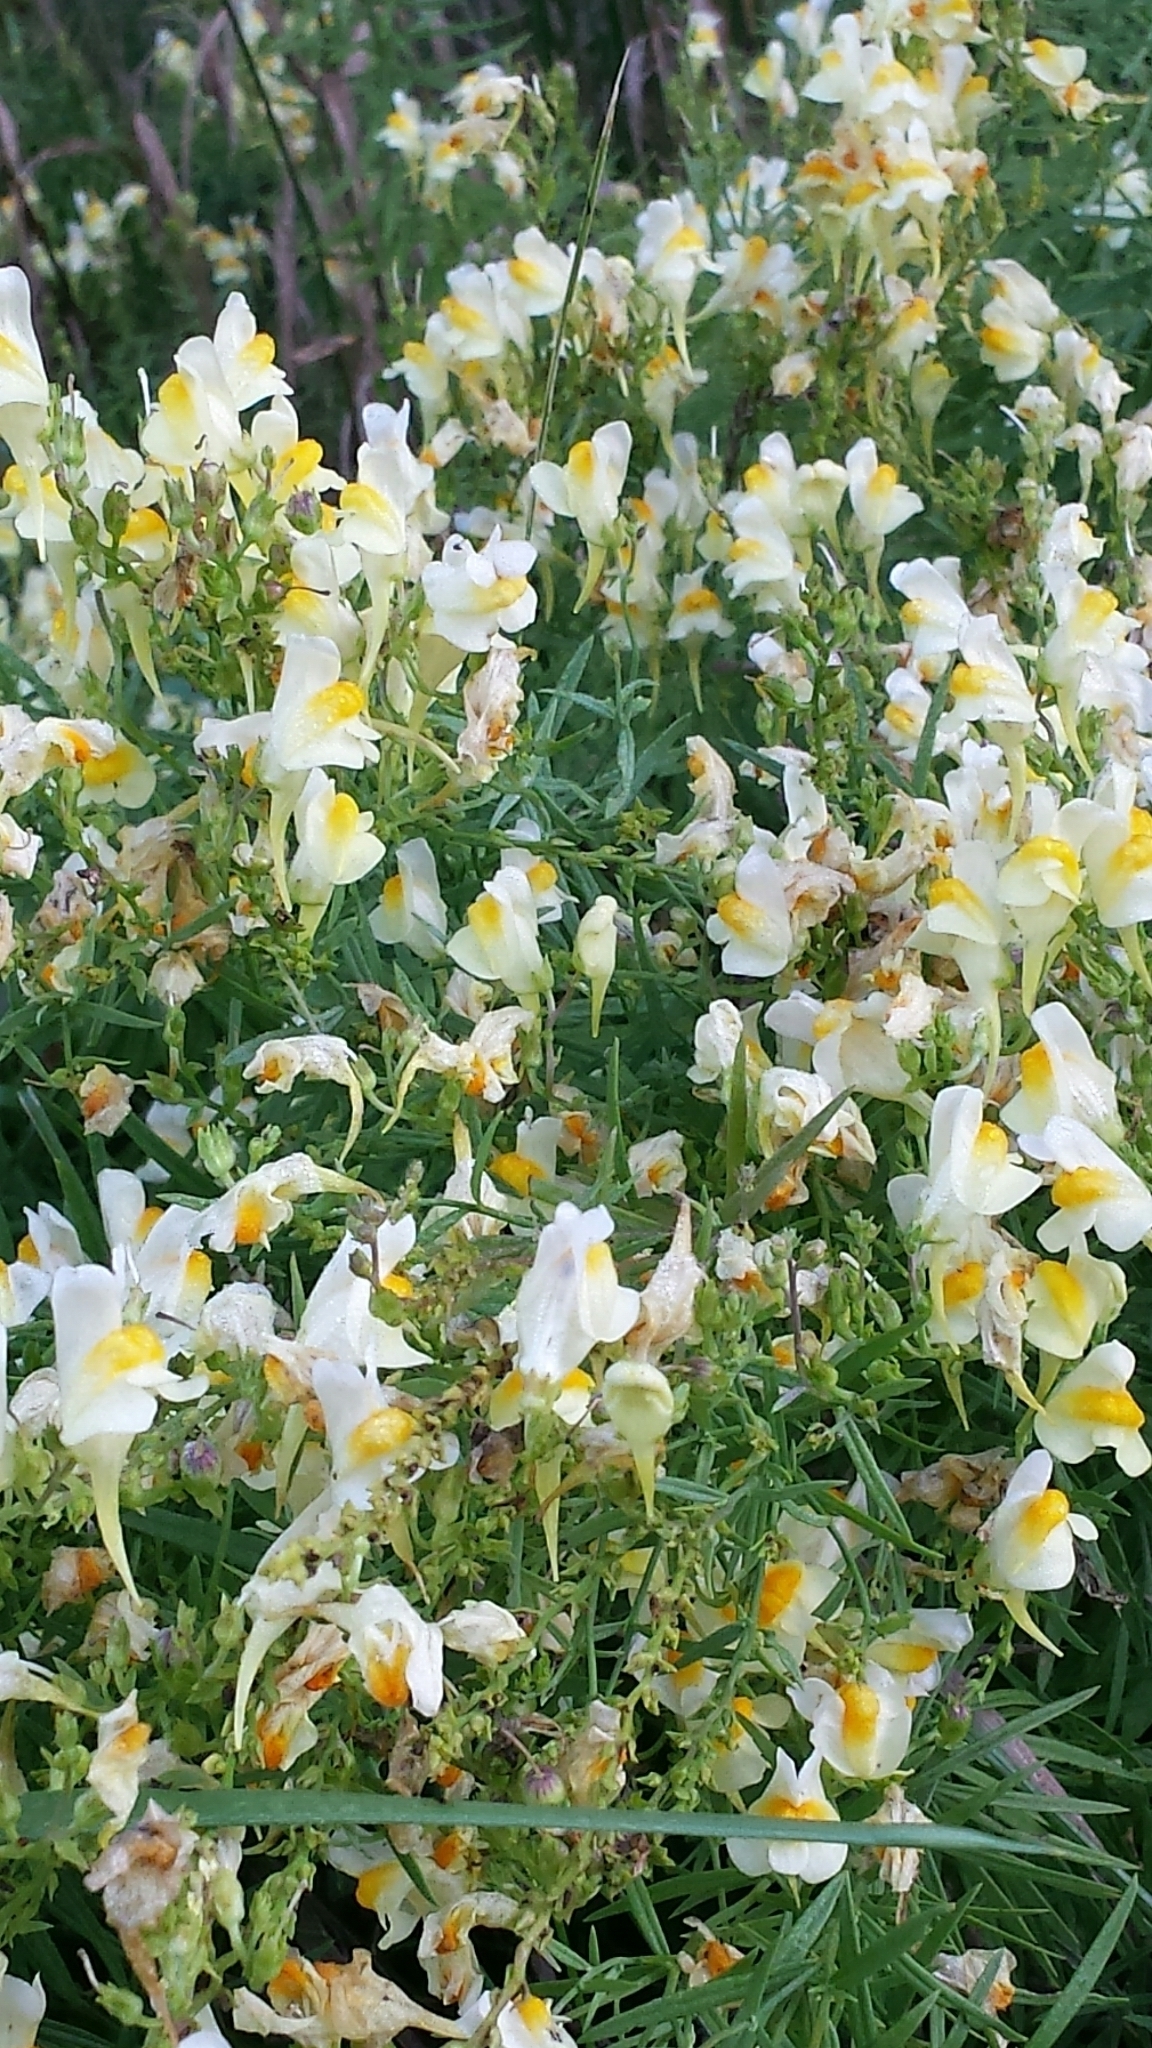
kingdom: Plantae
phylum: Tracheophyta
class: Magnoliopsida
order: Lamiales
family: Plantaginaceae
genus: Linaria
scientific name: Linaria vulgaris
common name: Butter and eggs
